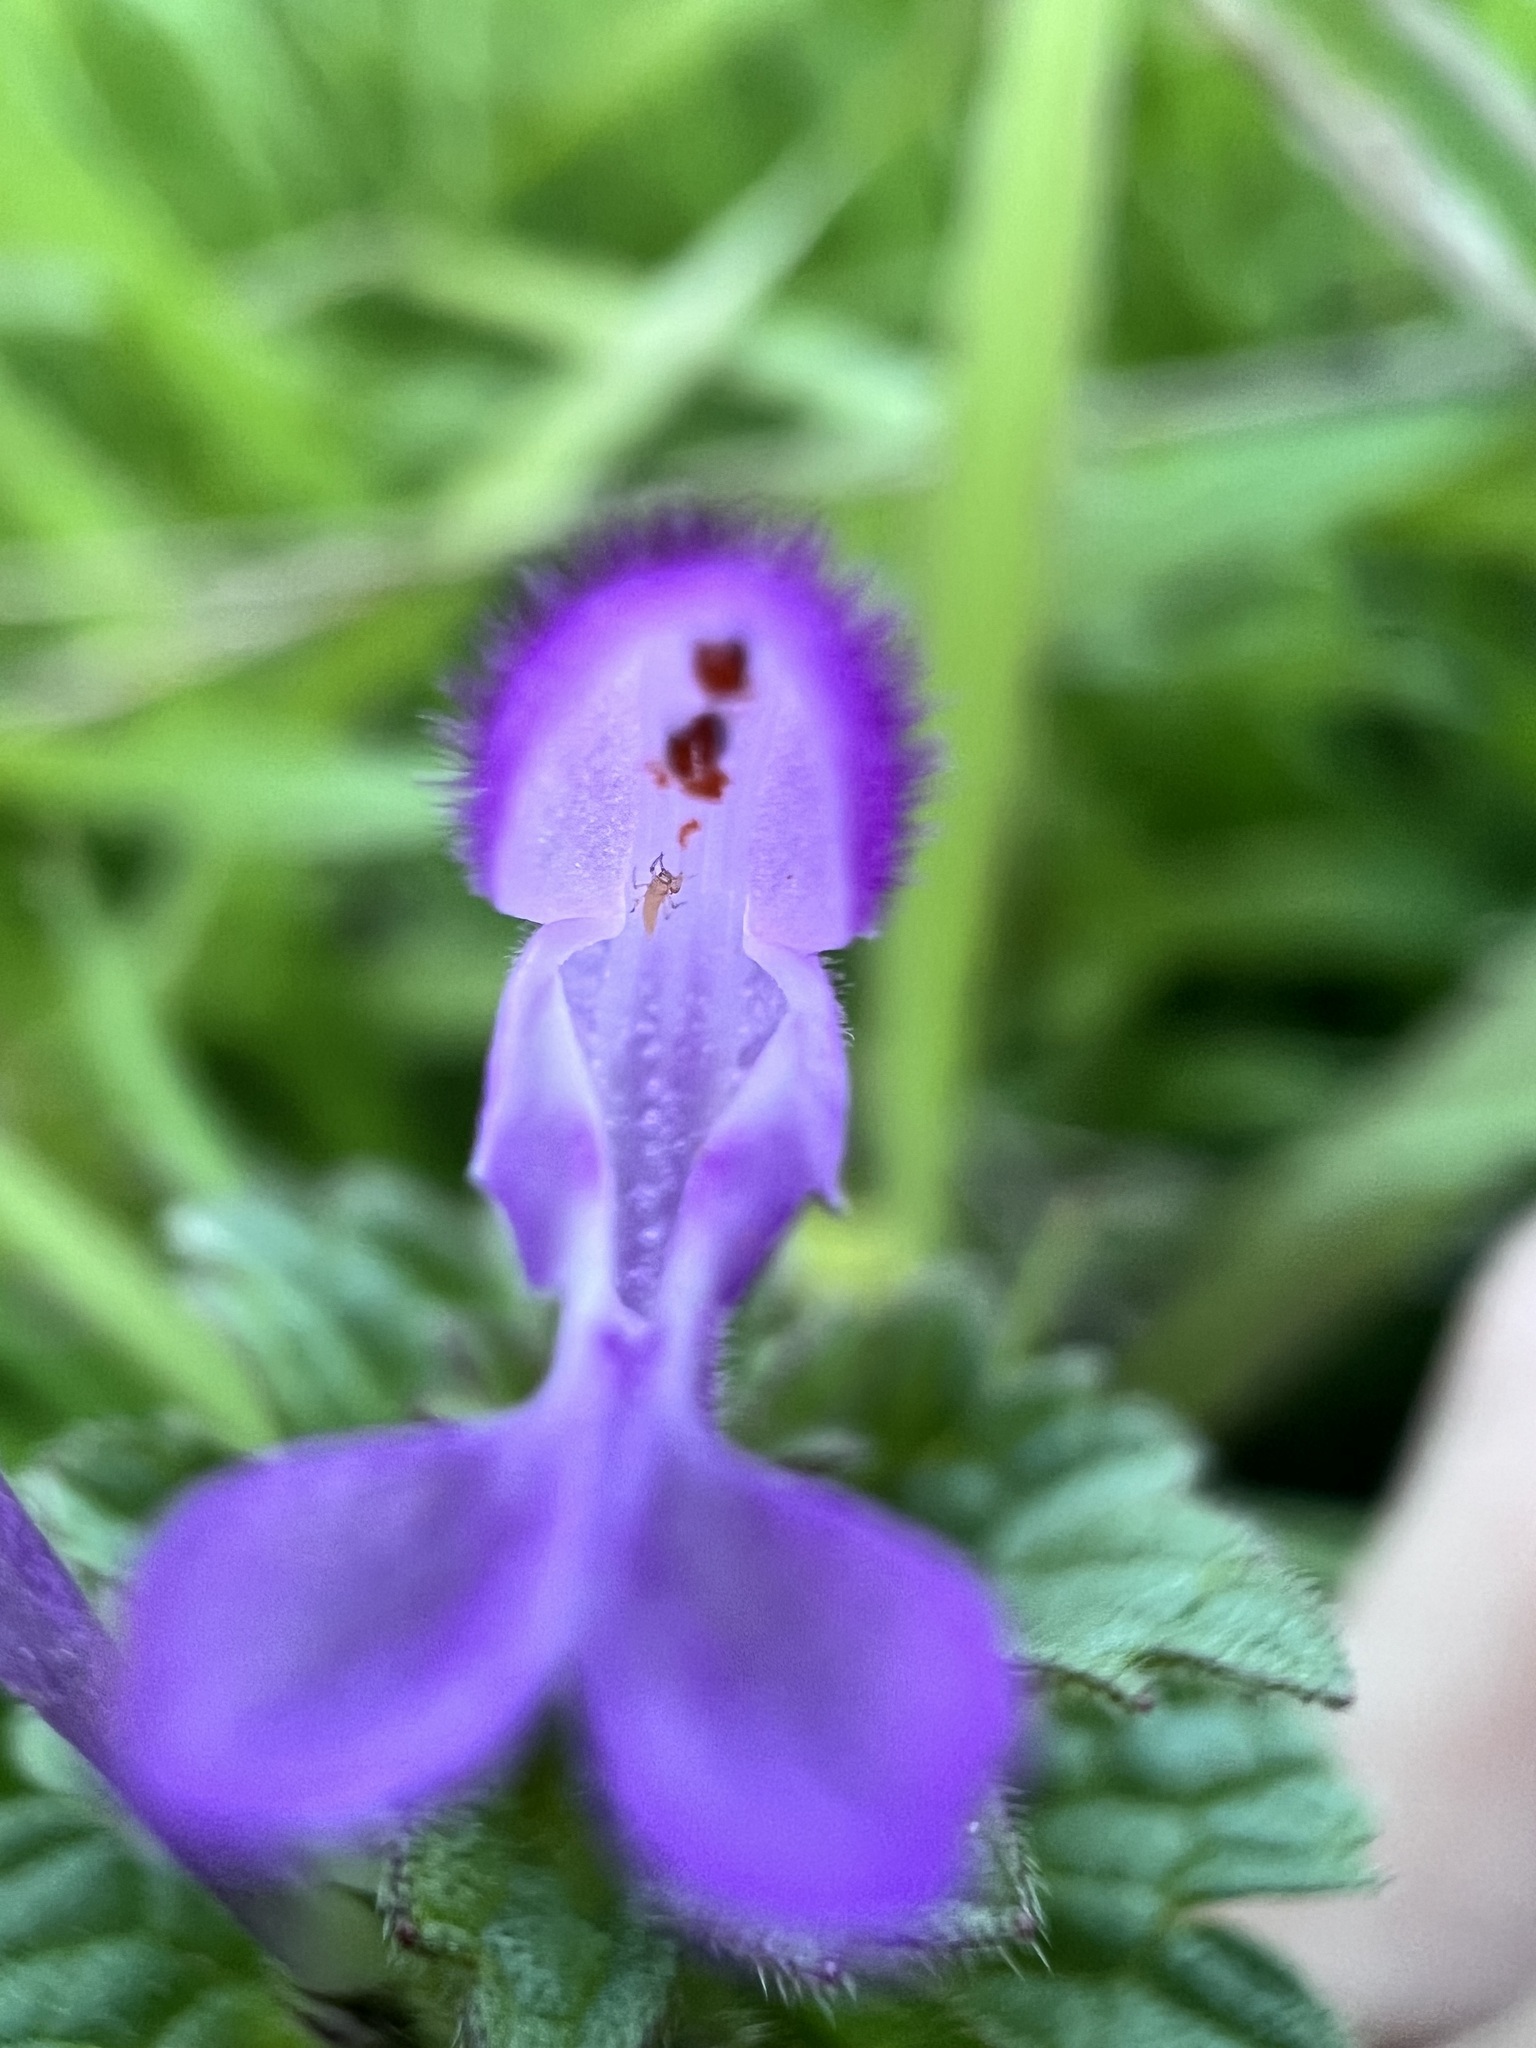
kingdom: Plantae
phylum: Tracheophyta
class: Magnoliopsida
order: Lamiales
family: Lamiaceae
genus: Lamium
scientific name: Lamium amplexicaule
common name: Henbit dead-nettle
